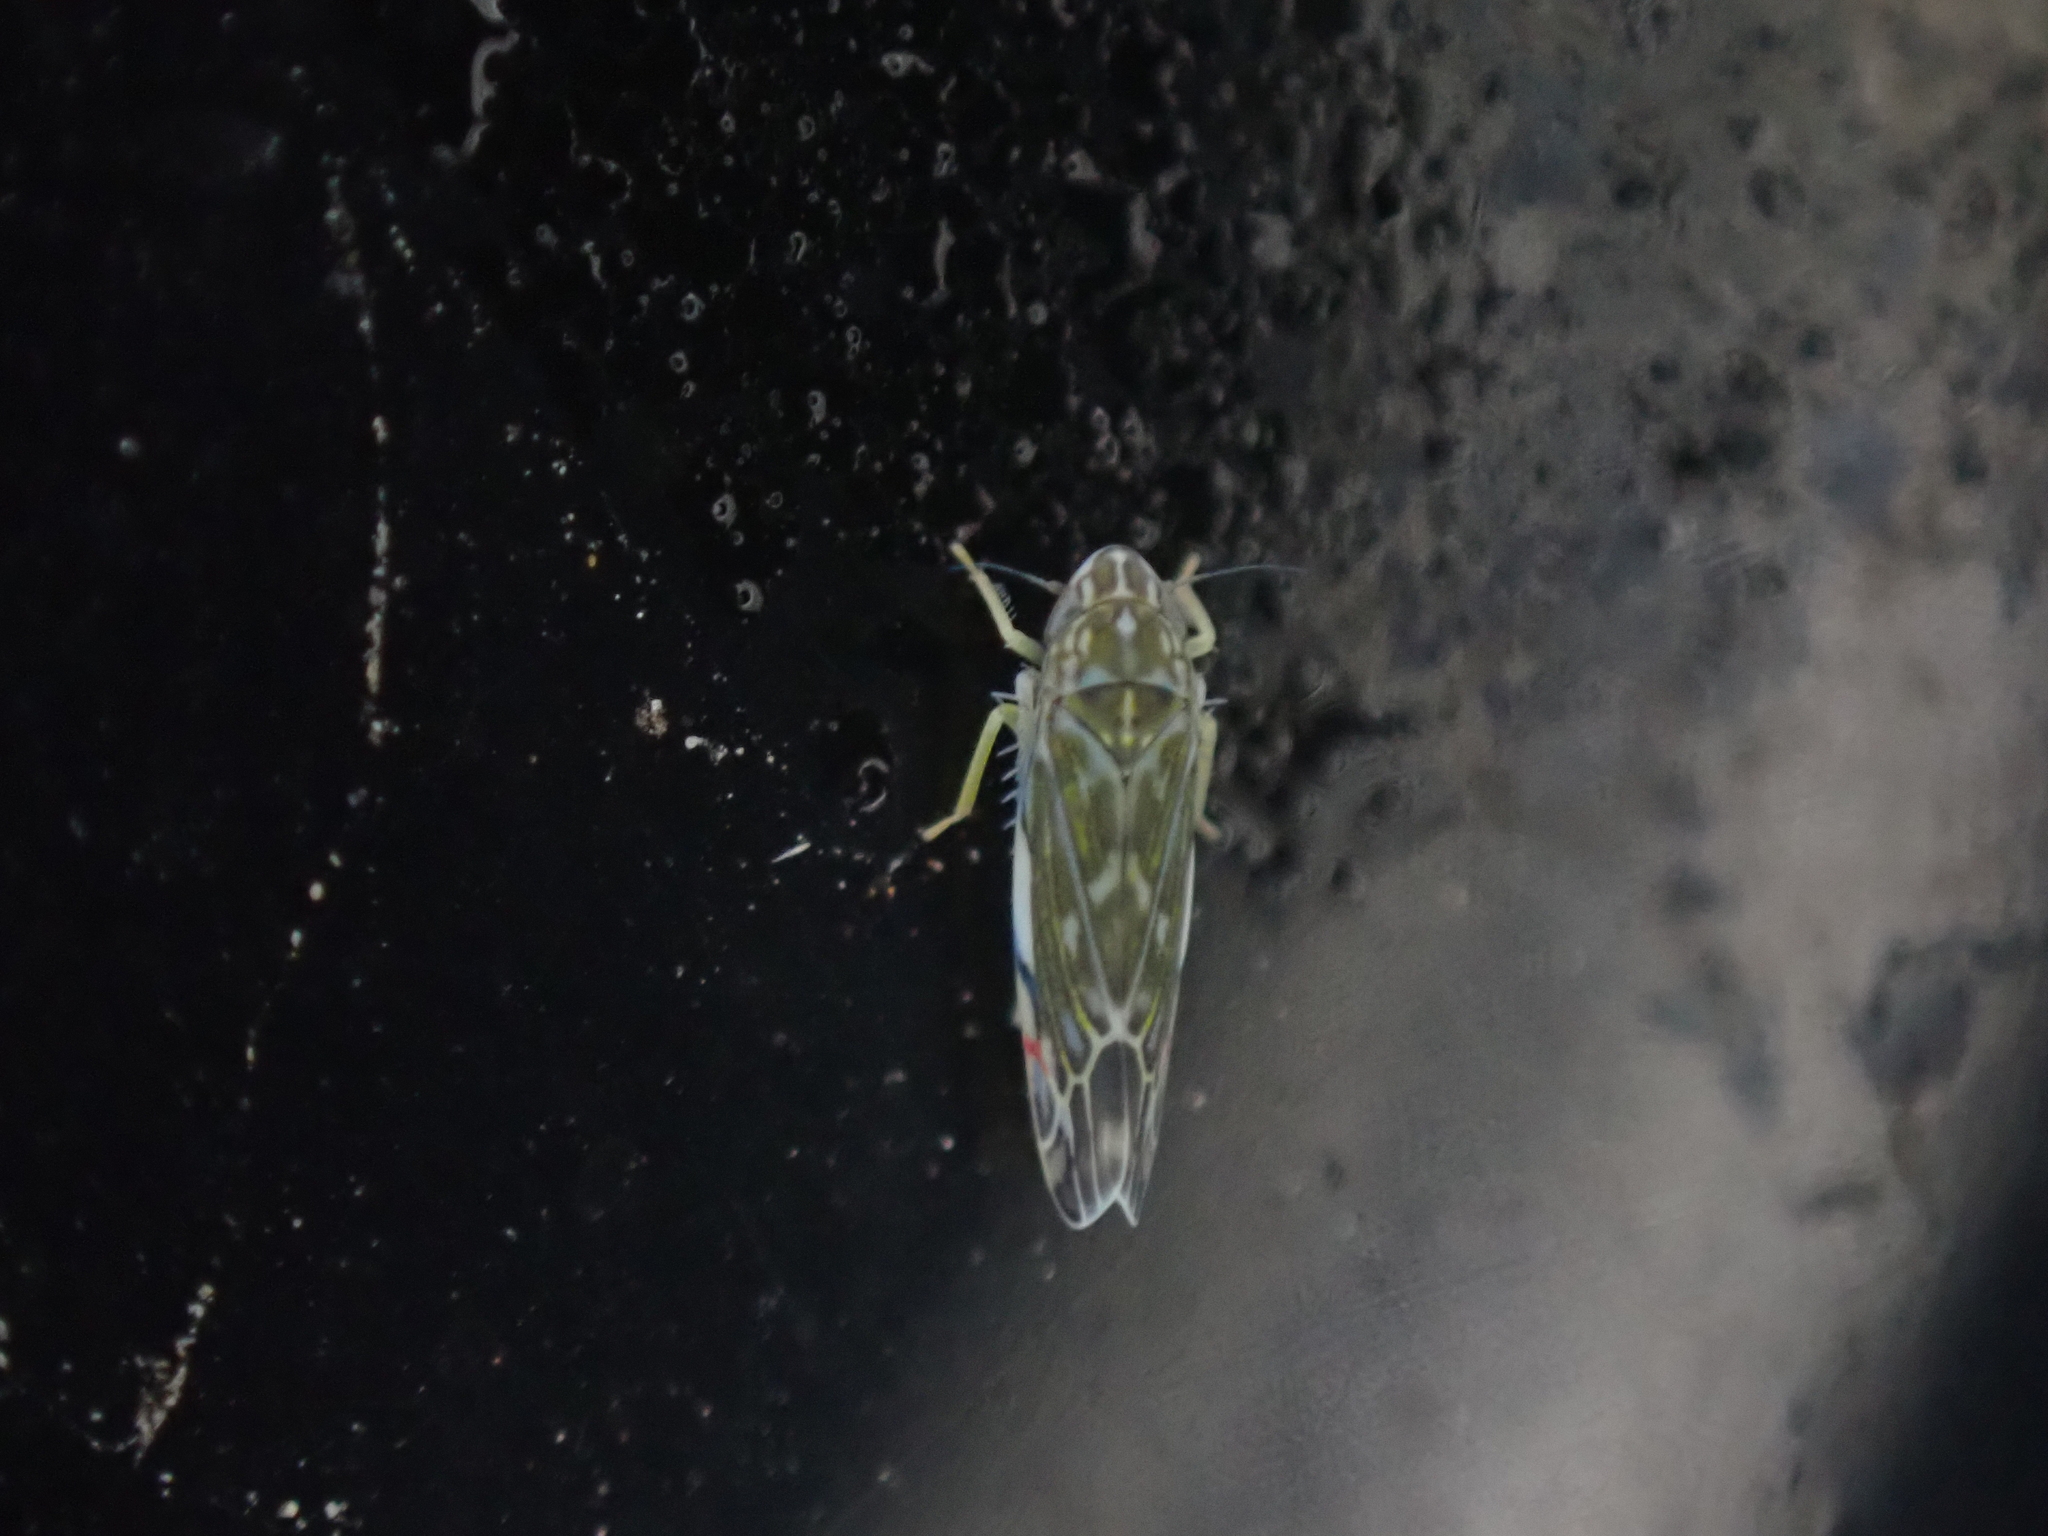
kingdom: Animalia
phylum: Arthropoda
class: Insecta
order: Hemiptera
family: Cicadellidae
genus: Erasmoneura
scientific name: Erasmoneura vulnerata
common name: The wounded leafhopper
